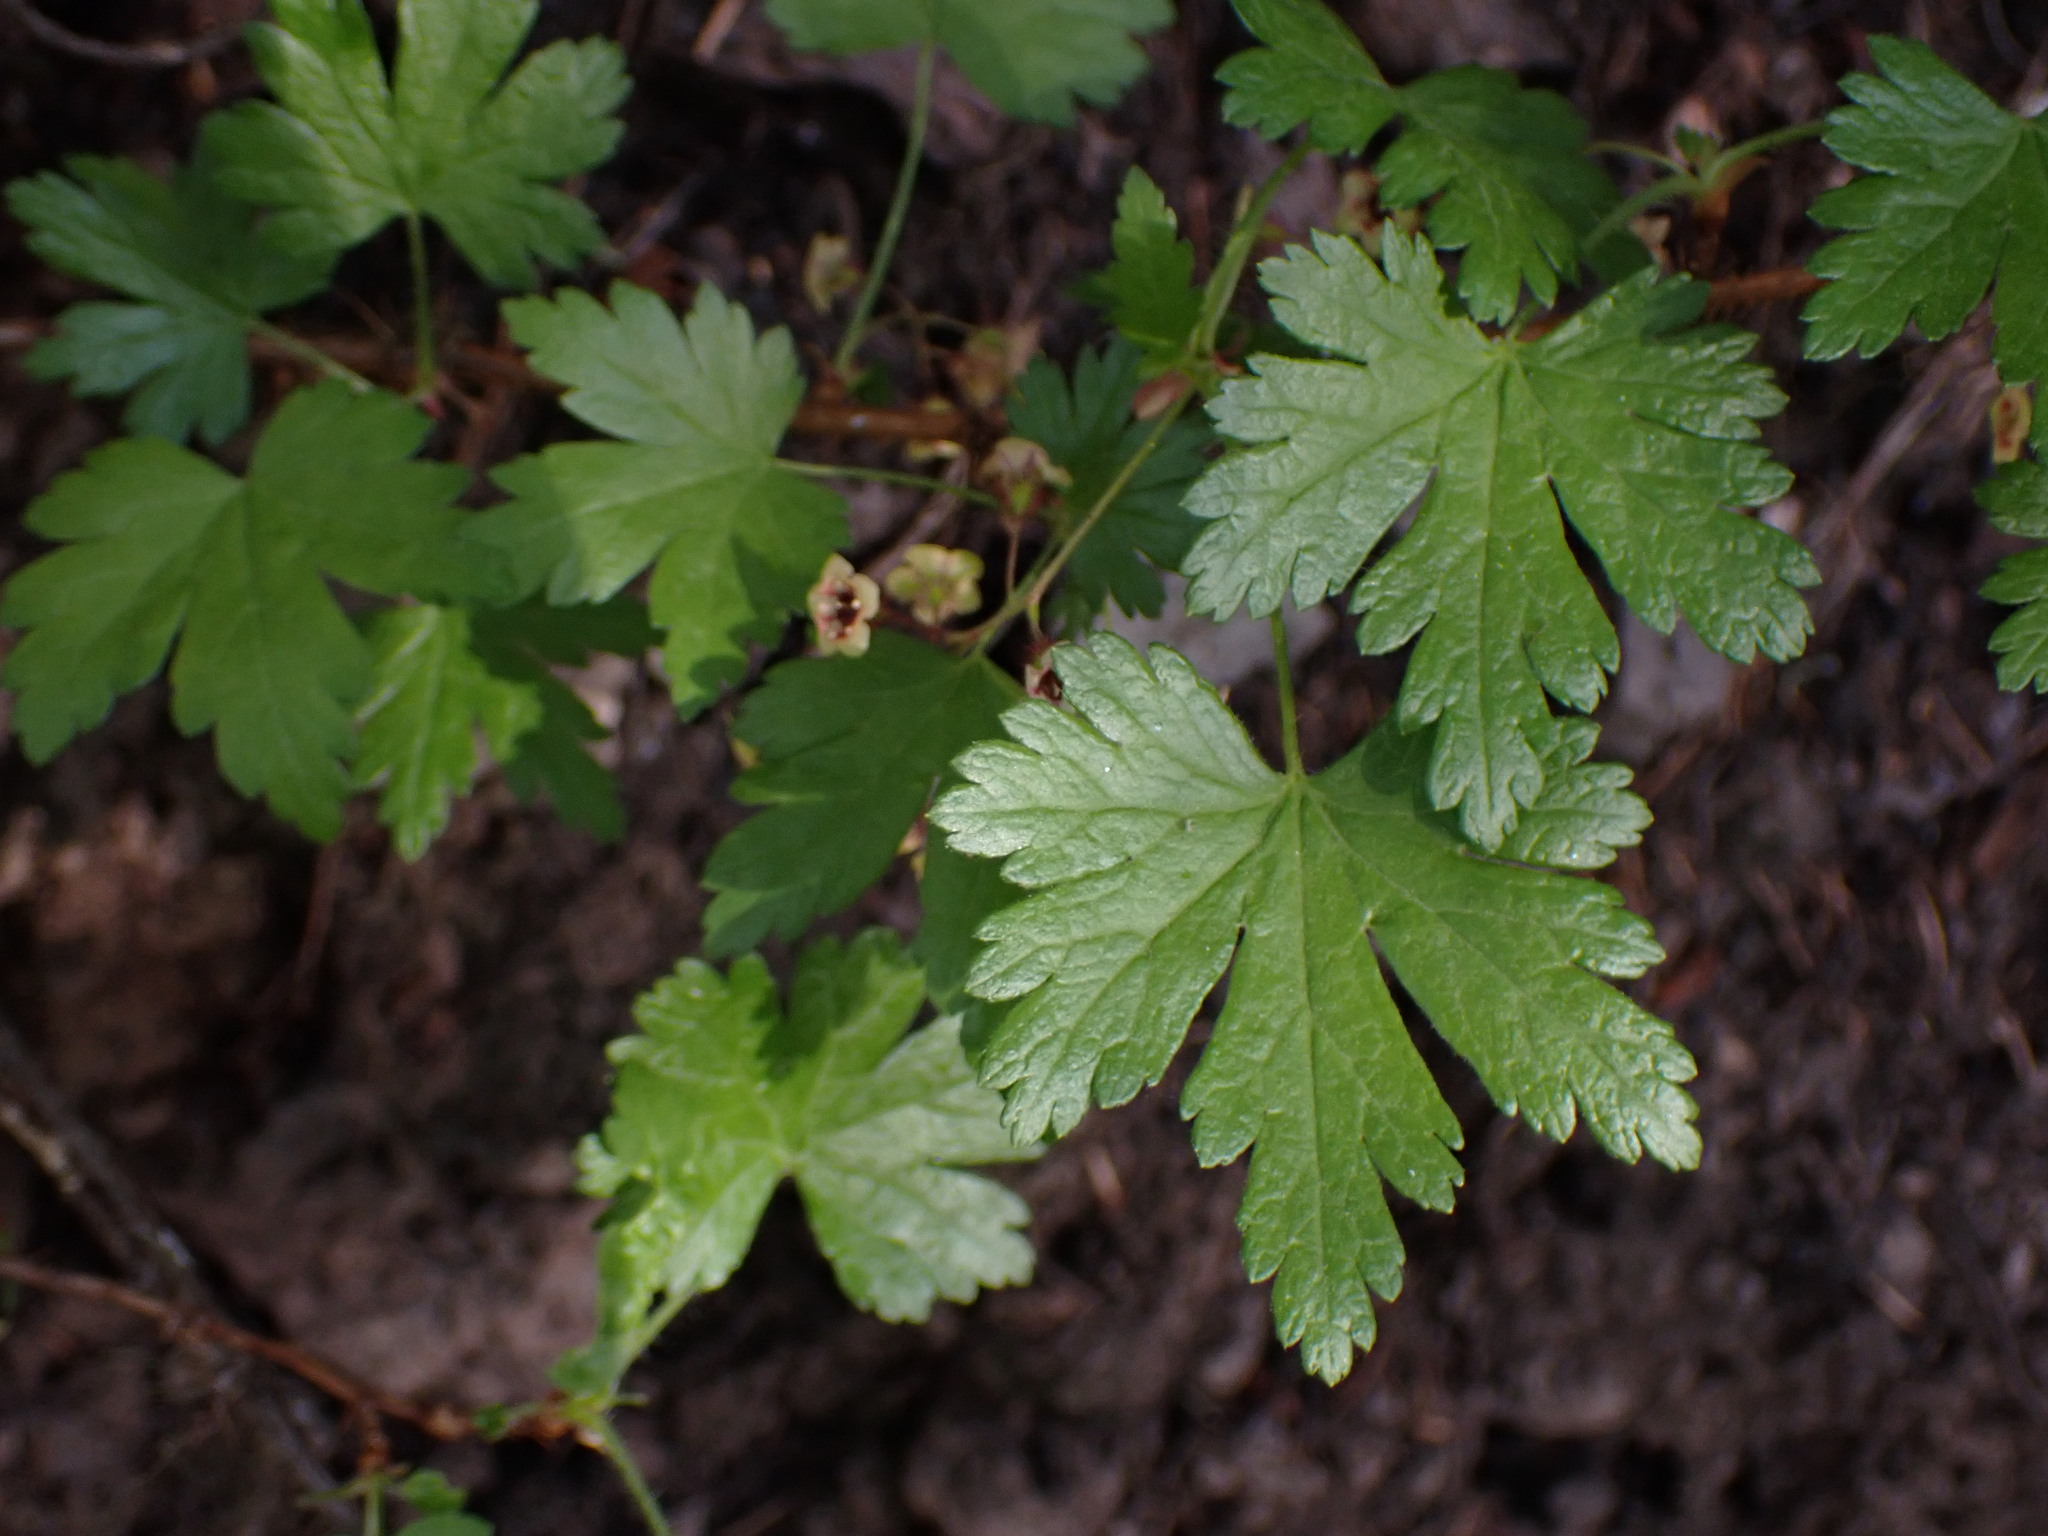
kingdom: Plantae
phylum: Tracheophyta
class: Magnoliopsida
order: Saxifragales
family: Grossulariaceae
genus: Ribes
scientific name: Ribes lacustre
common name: Black gooseberry
